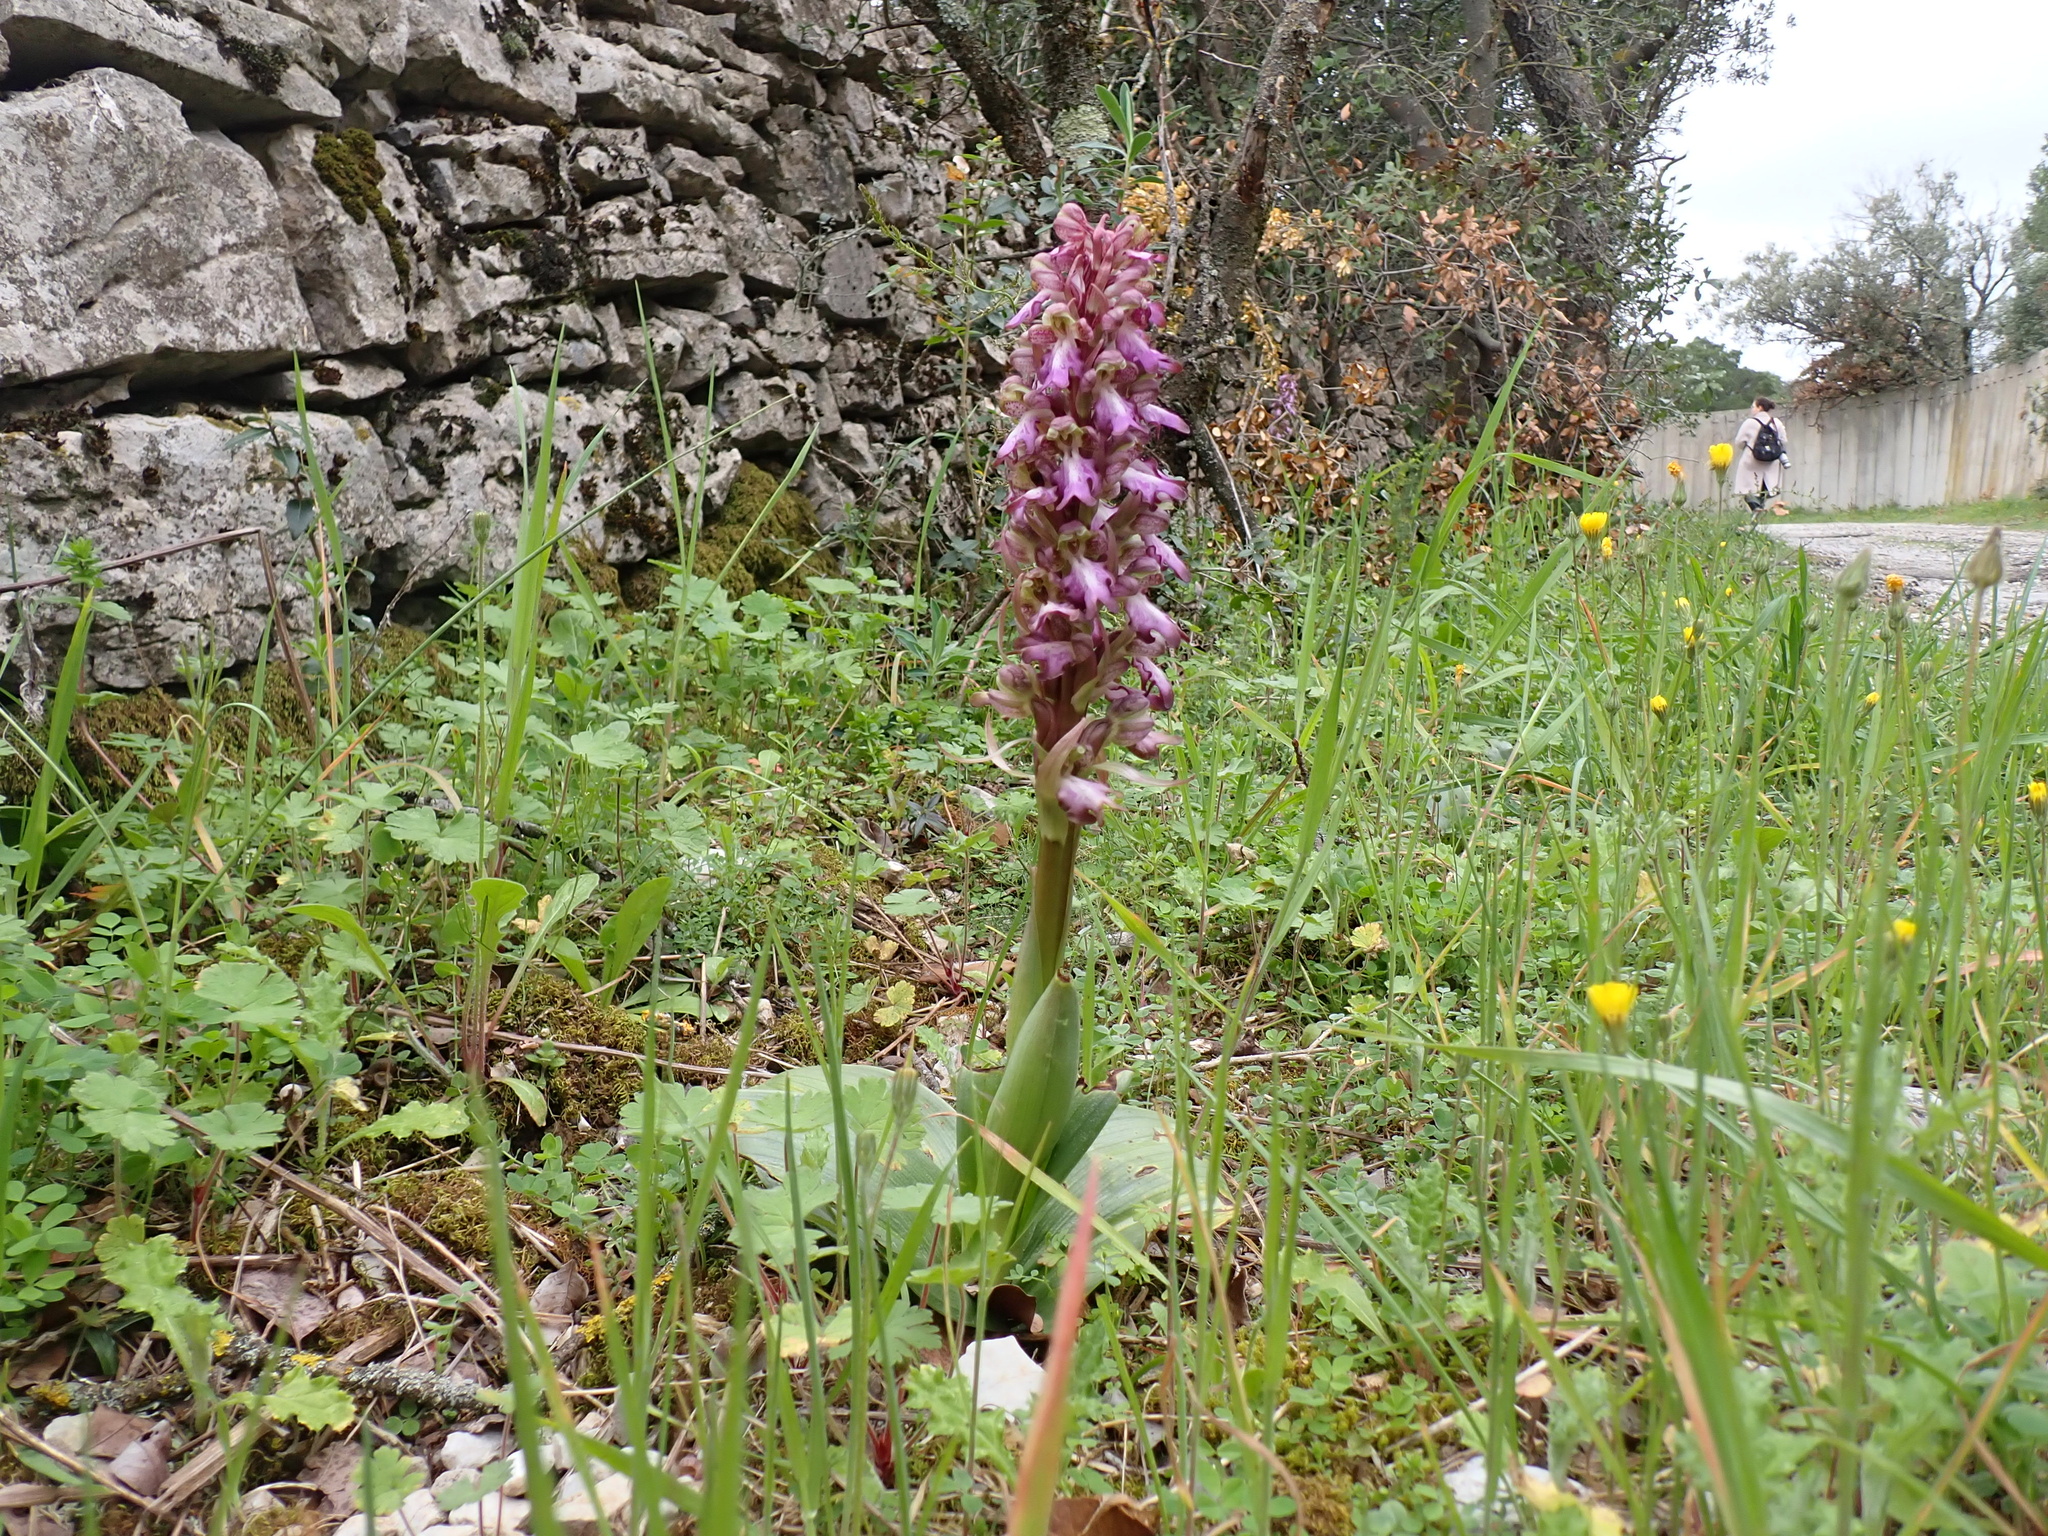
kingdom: Plantae
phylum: Tracheophyta
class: Liliopsida
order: Asparagales
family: Orchidaceae
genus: Himantoglossum
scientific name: Himantoglossum robertianum
